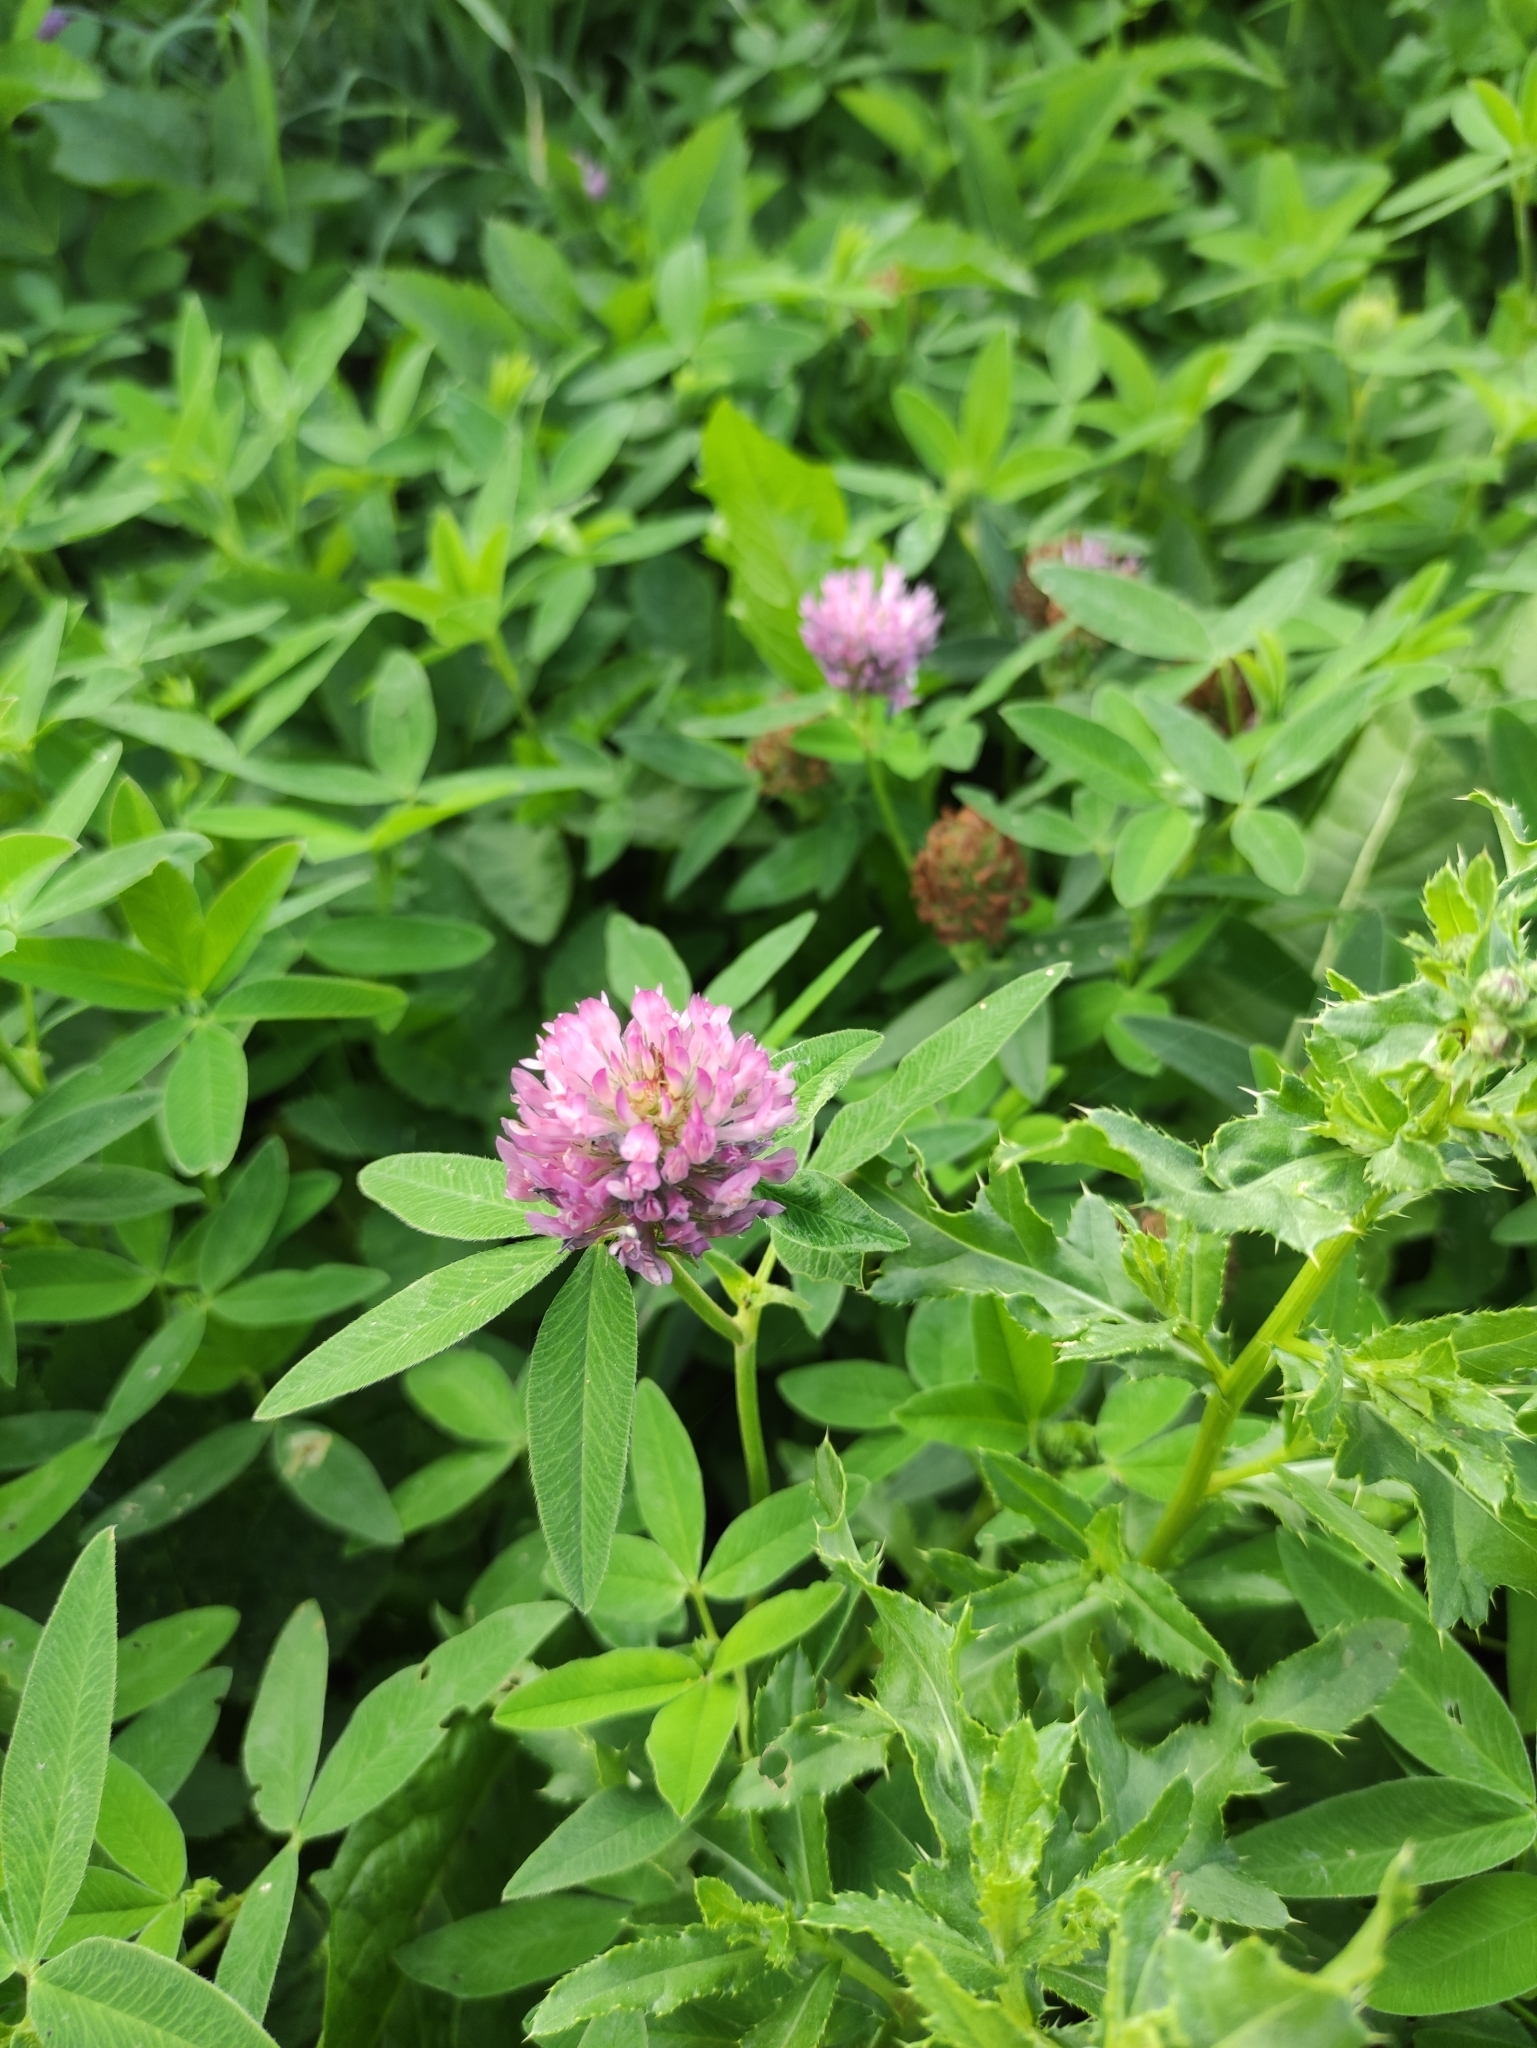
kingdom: Plantae
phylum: Tracheophyta
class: Magnoliopsida
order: Fabales
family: Fabaceae
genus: Trifolium
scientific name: Trifolium medium
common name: Zigzag clover
